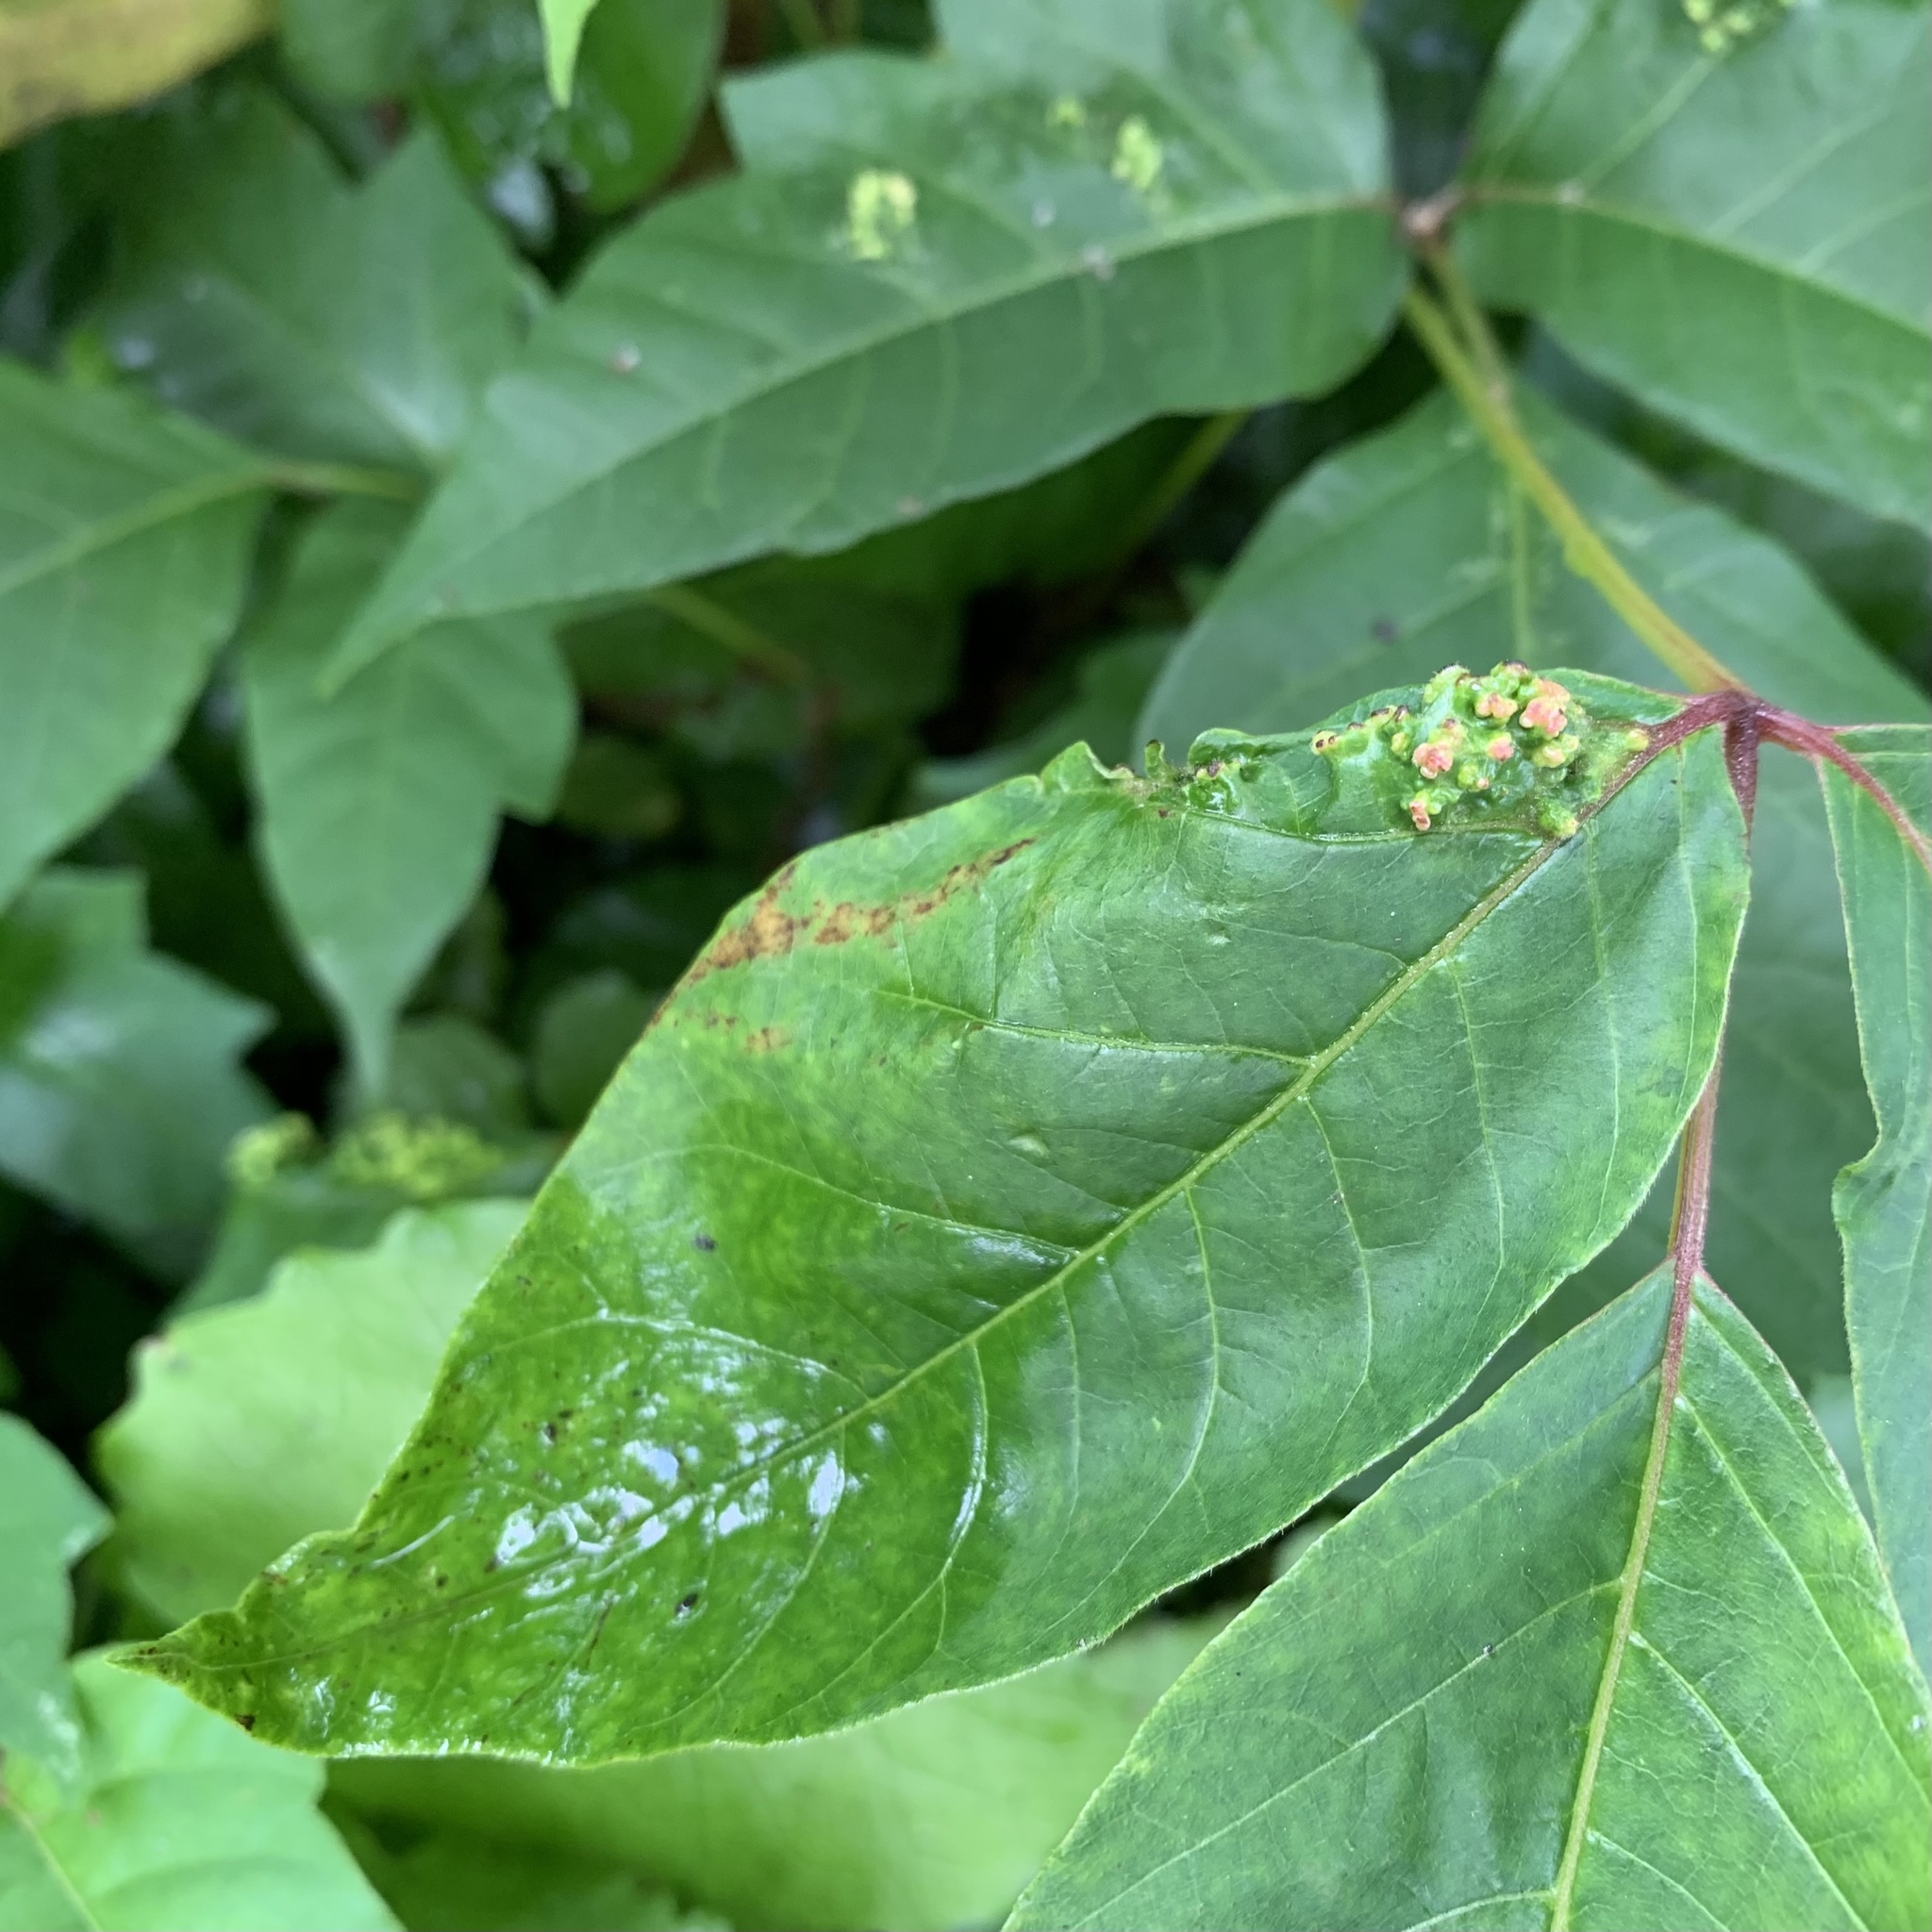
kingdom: Animalia
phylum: Arthropoda
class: Arachnida
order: Trombidiformes
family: Eriophyidae
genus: Aculops
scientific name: Aculops
